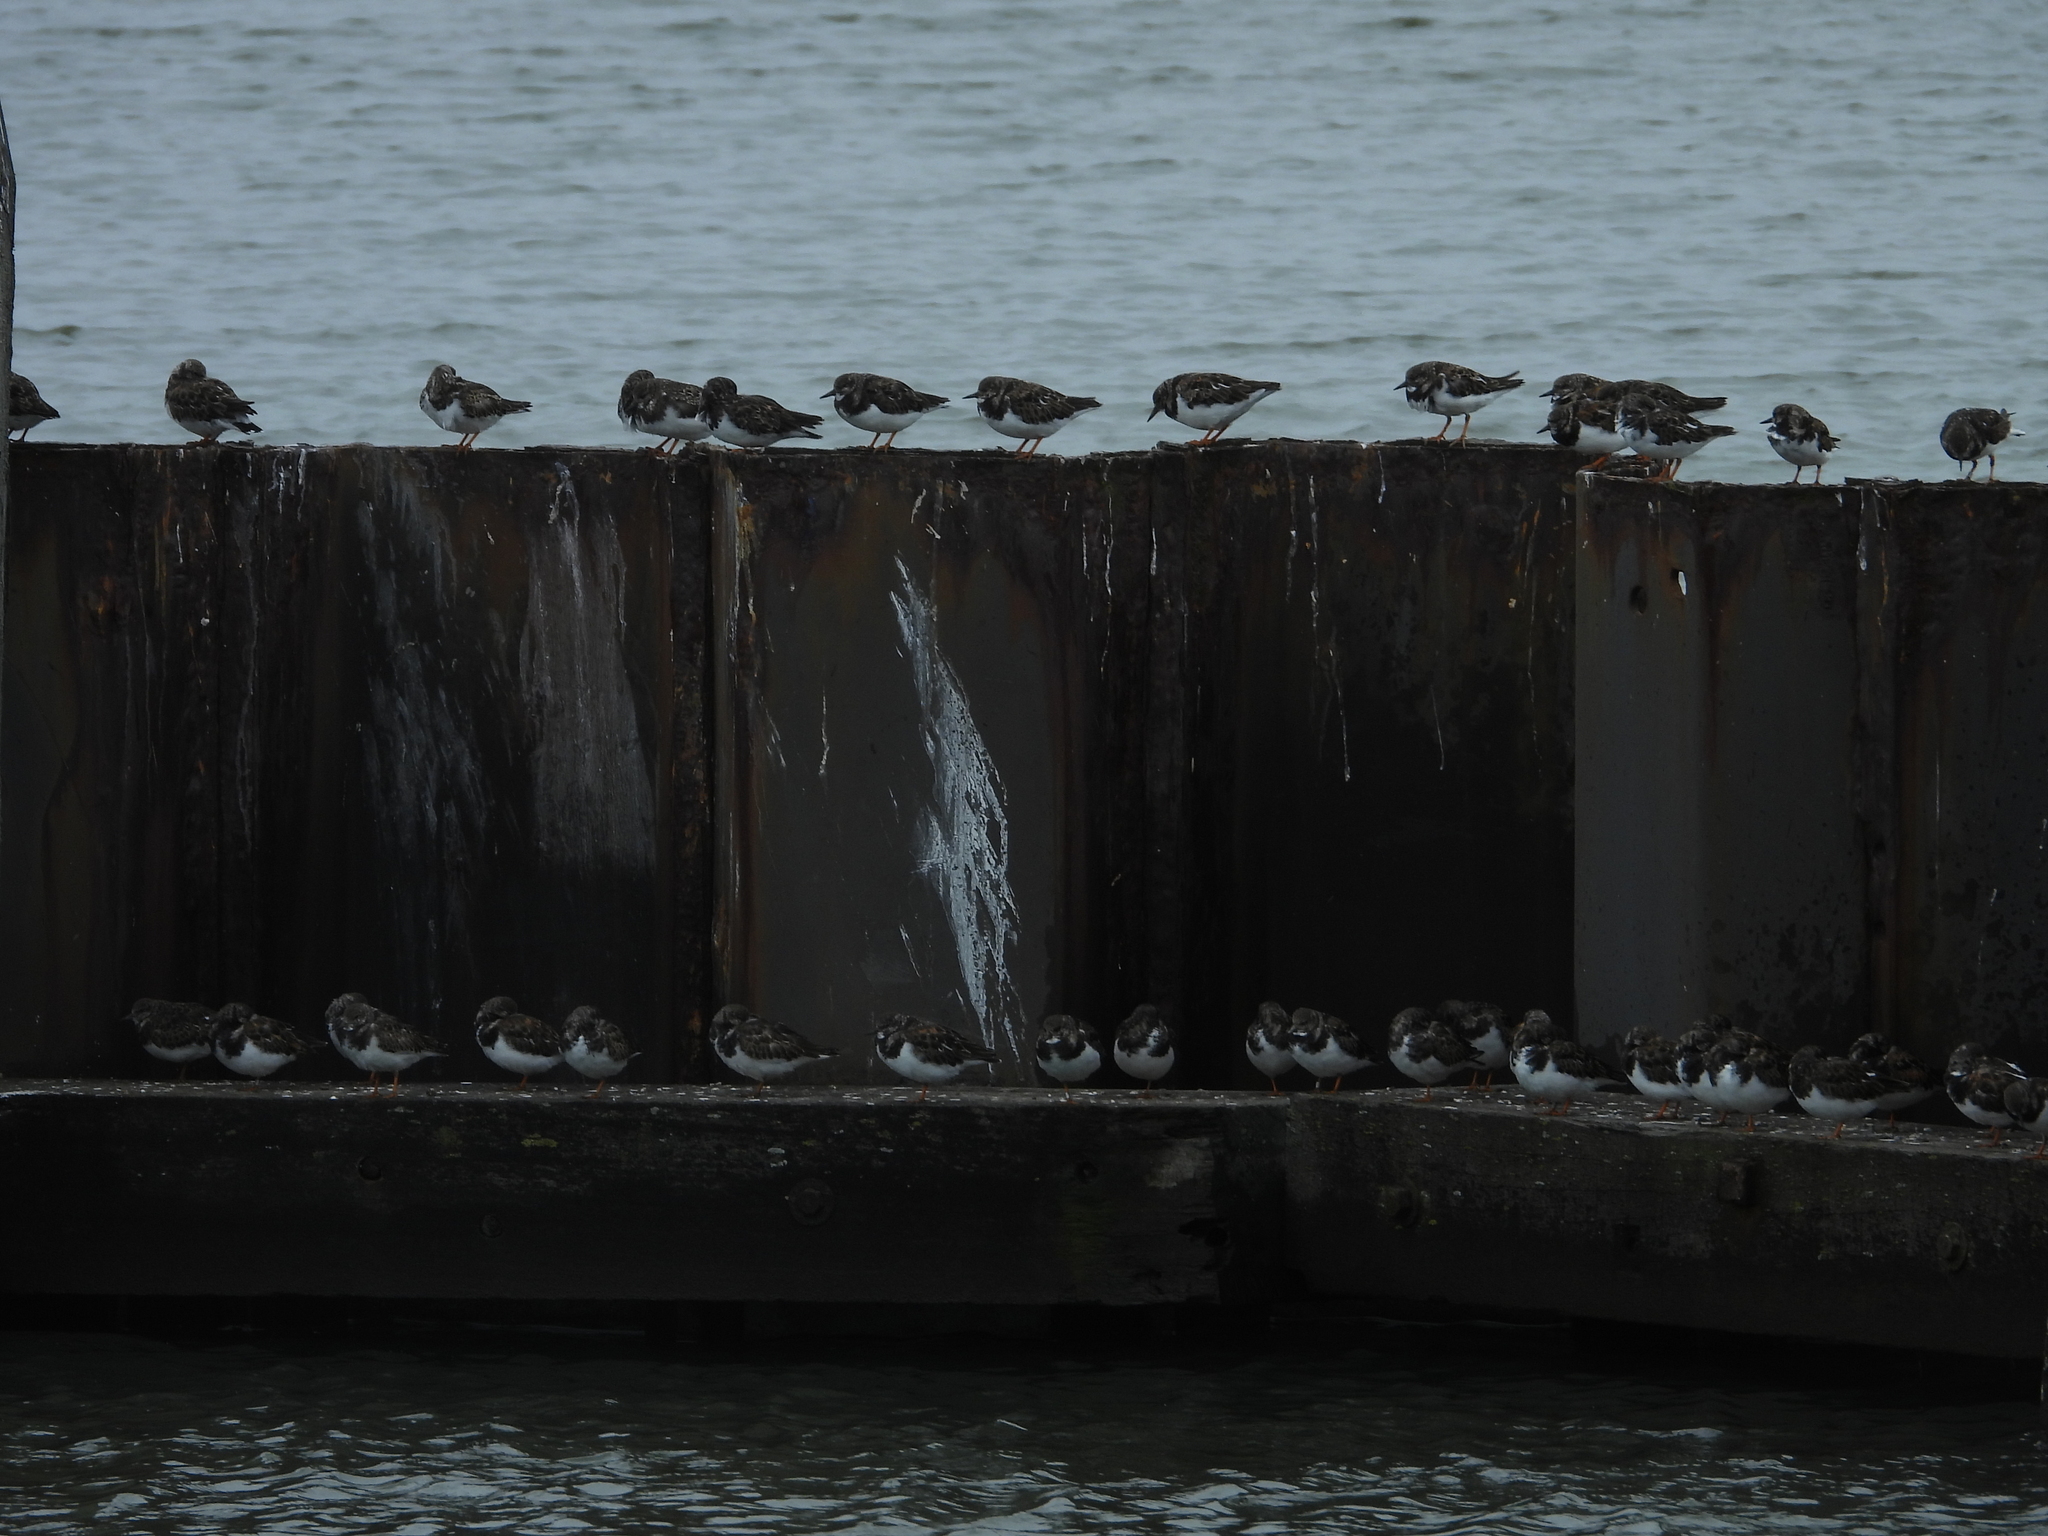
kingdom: Animalia
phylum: Chordata
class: Aves
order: Charadriiformes
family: Scolopacidae
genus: Arenaria
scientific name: Arenaria interpres
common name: Ruddy turnstone
